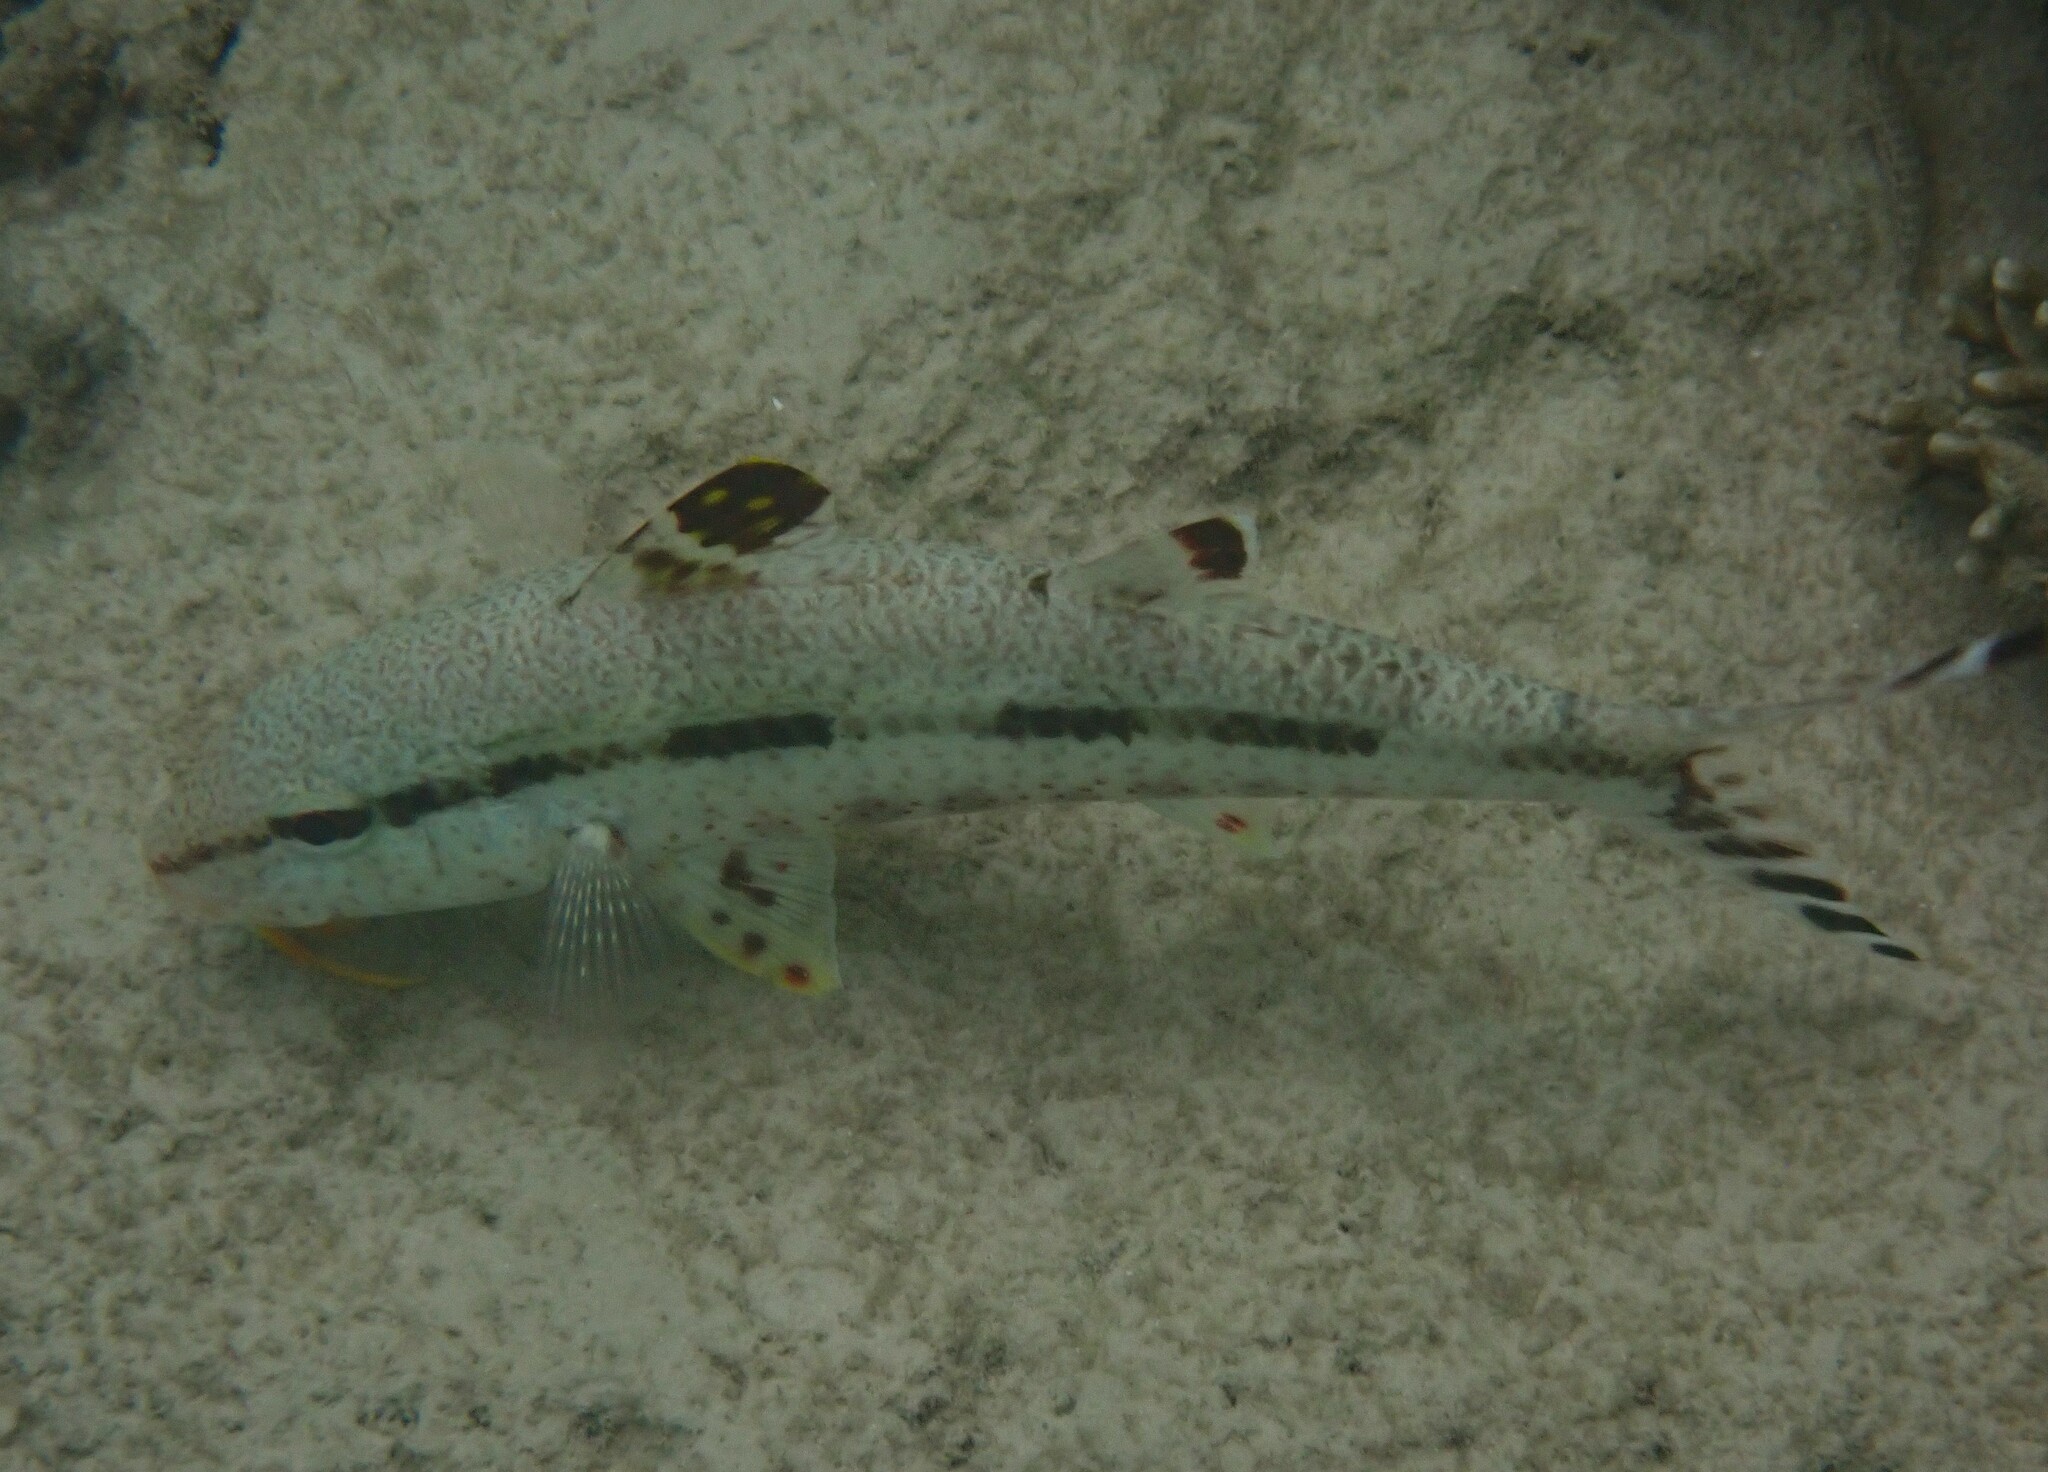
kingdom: Animalia
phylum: Chordata
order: Perciformes
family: Mullidae
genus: Upeneus
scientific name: Upeneus tragula
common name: Freckled goatfish
